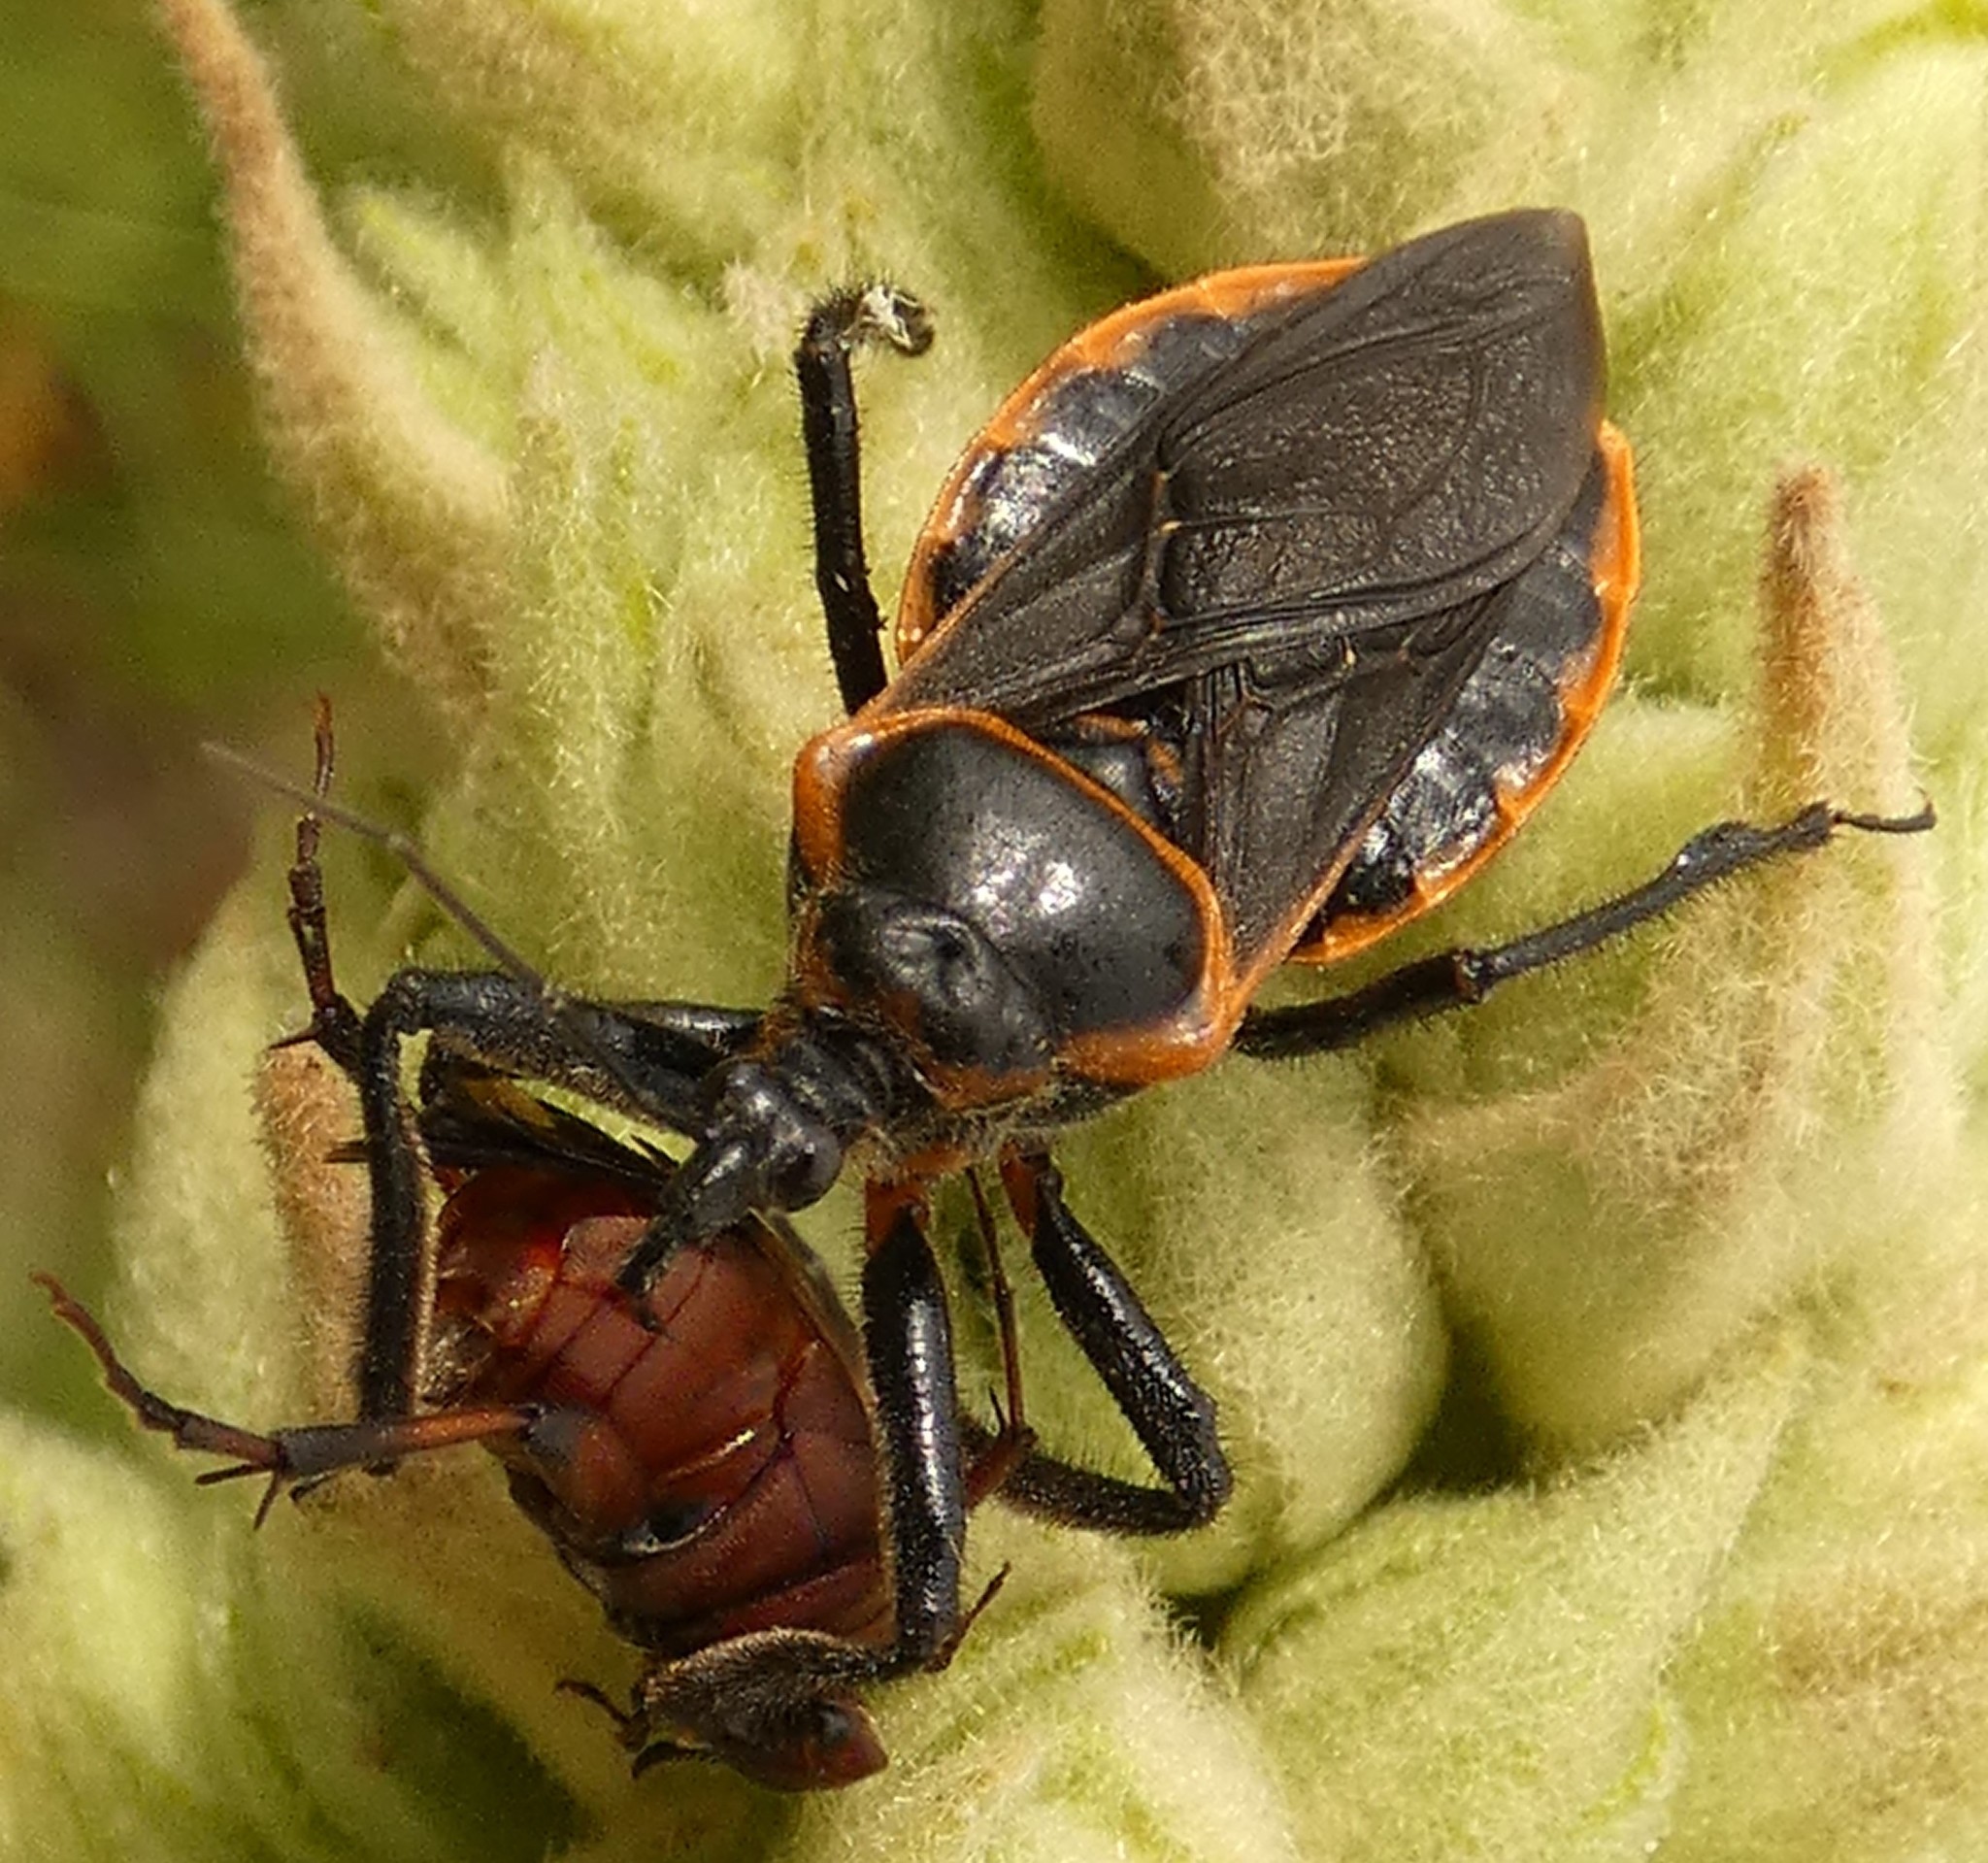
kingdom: Animalia
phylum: Arthropoda
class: Insecta
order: Hemiptera
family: Reduviidae
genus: Apiomerus
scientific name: Apiomerus crassipes
